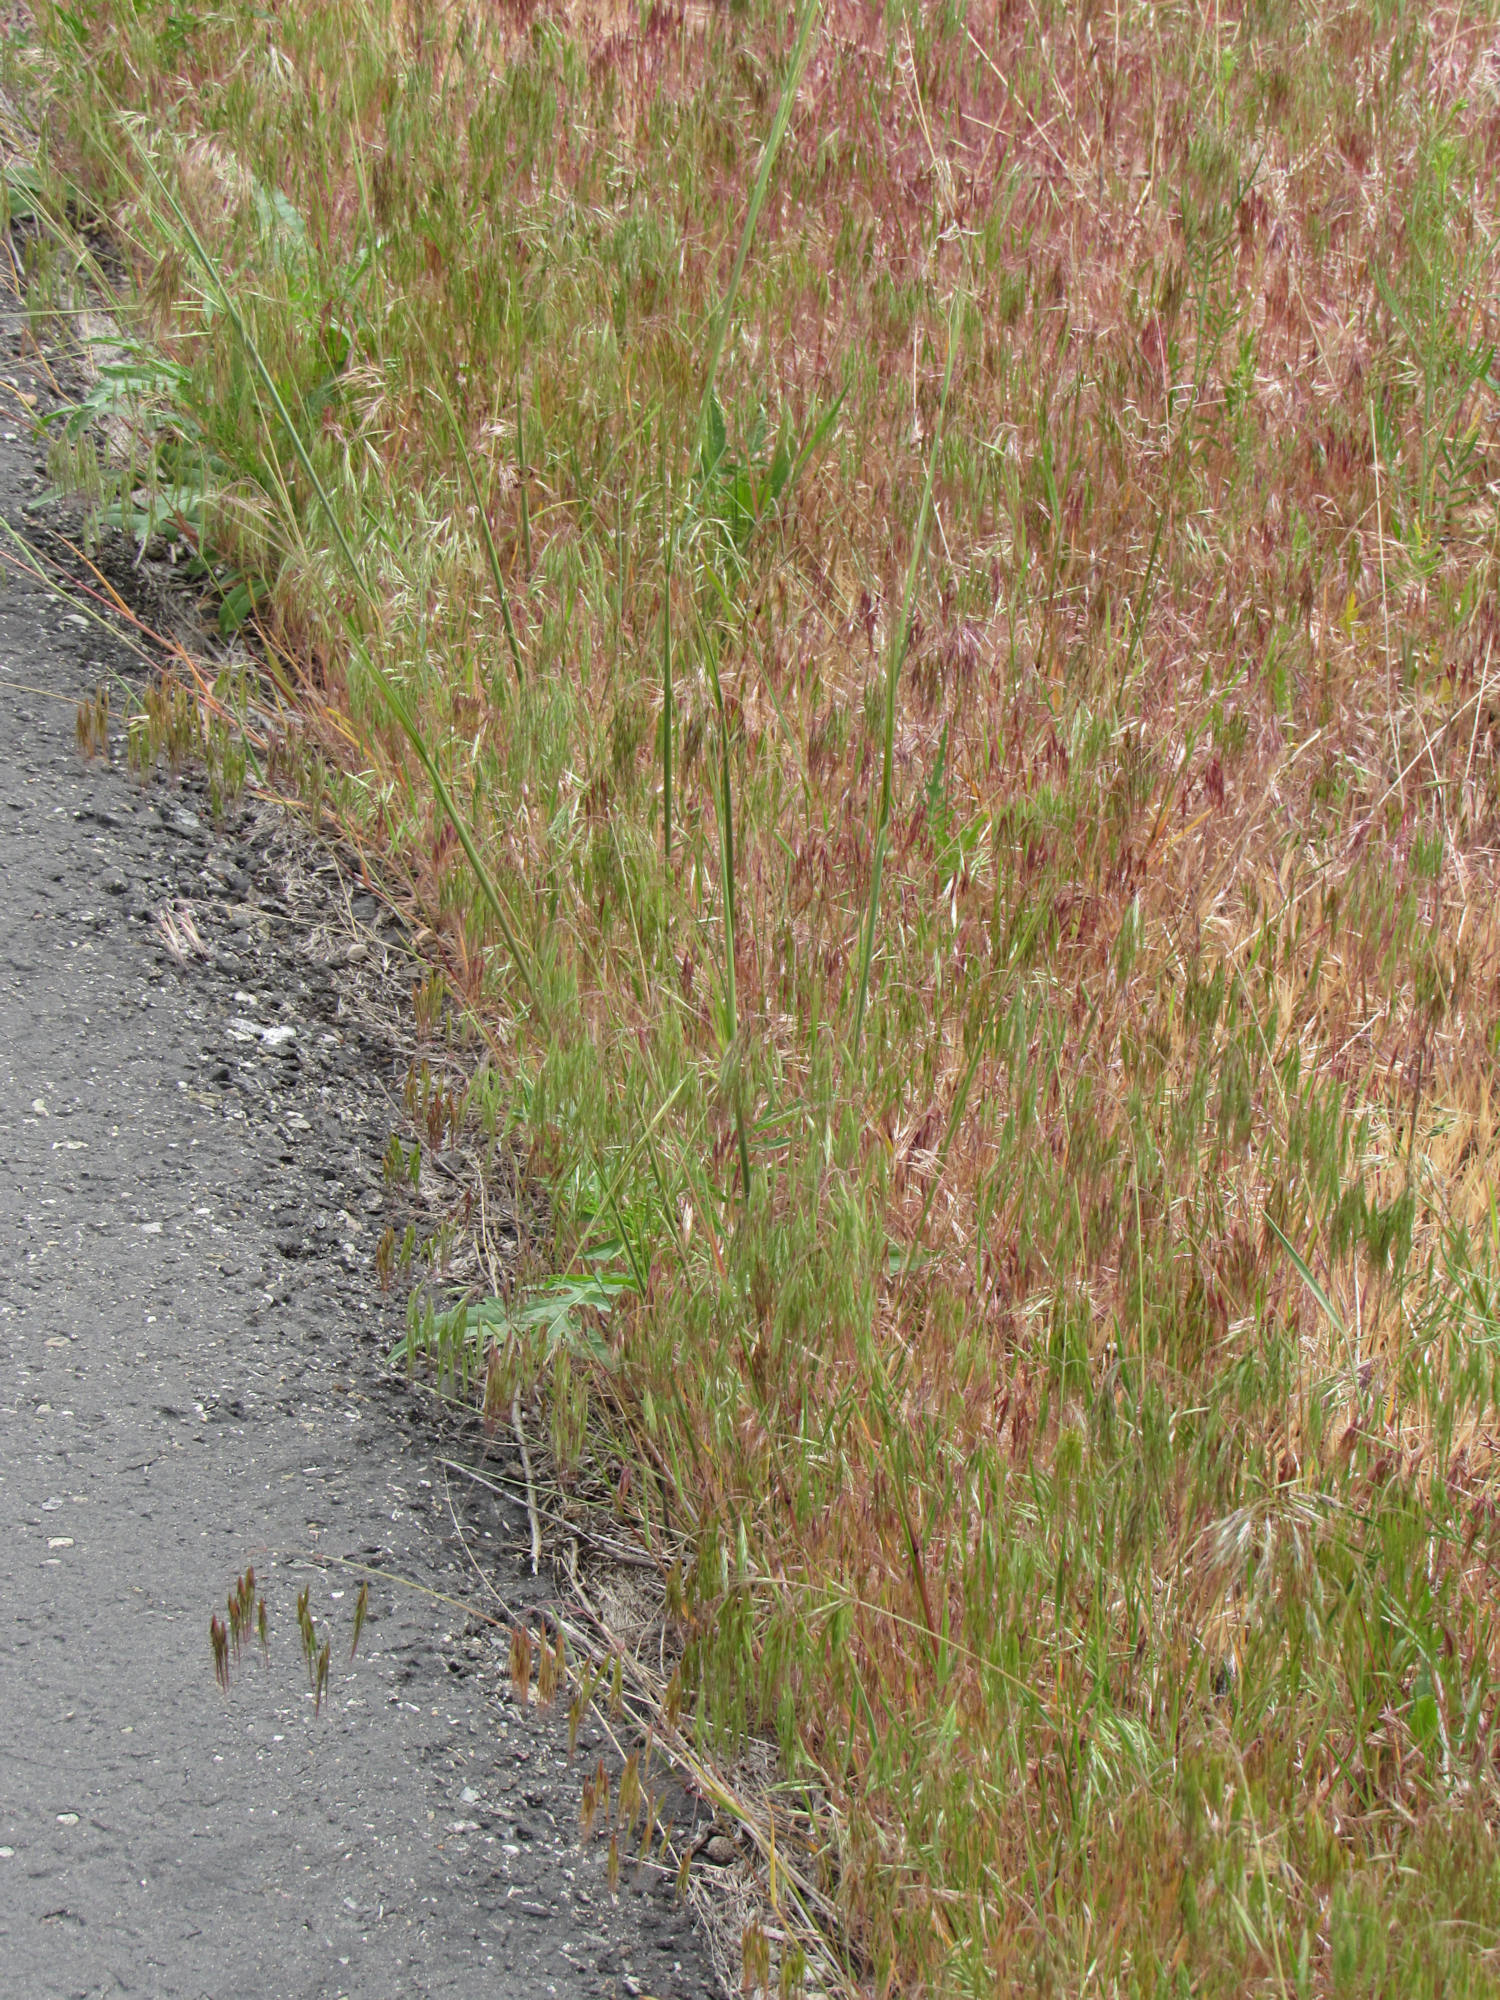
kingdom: Plantae
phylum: Tracheophyta
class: Liliopsida
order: Poales
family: Poaceae
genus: Bromus
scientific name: Bromus tectorum
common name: Cheatgrass
